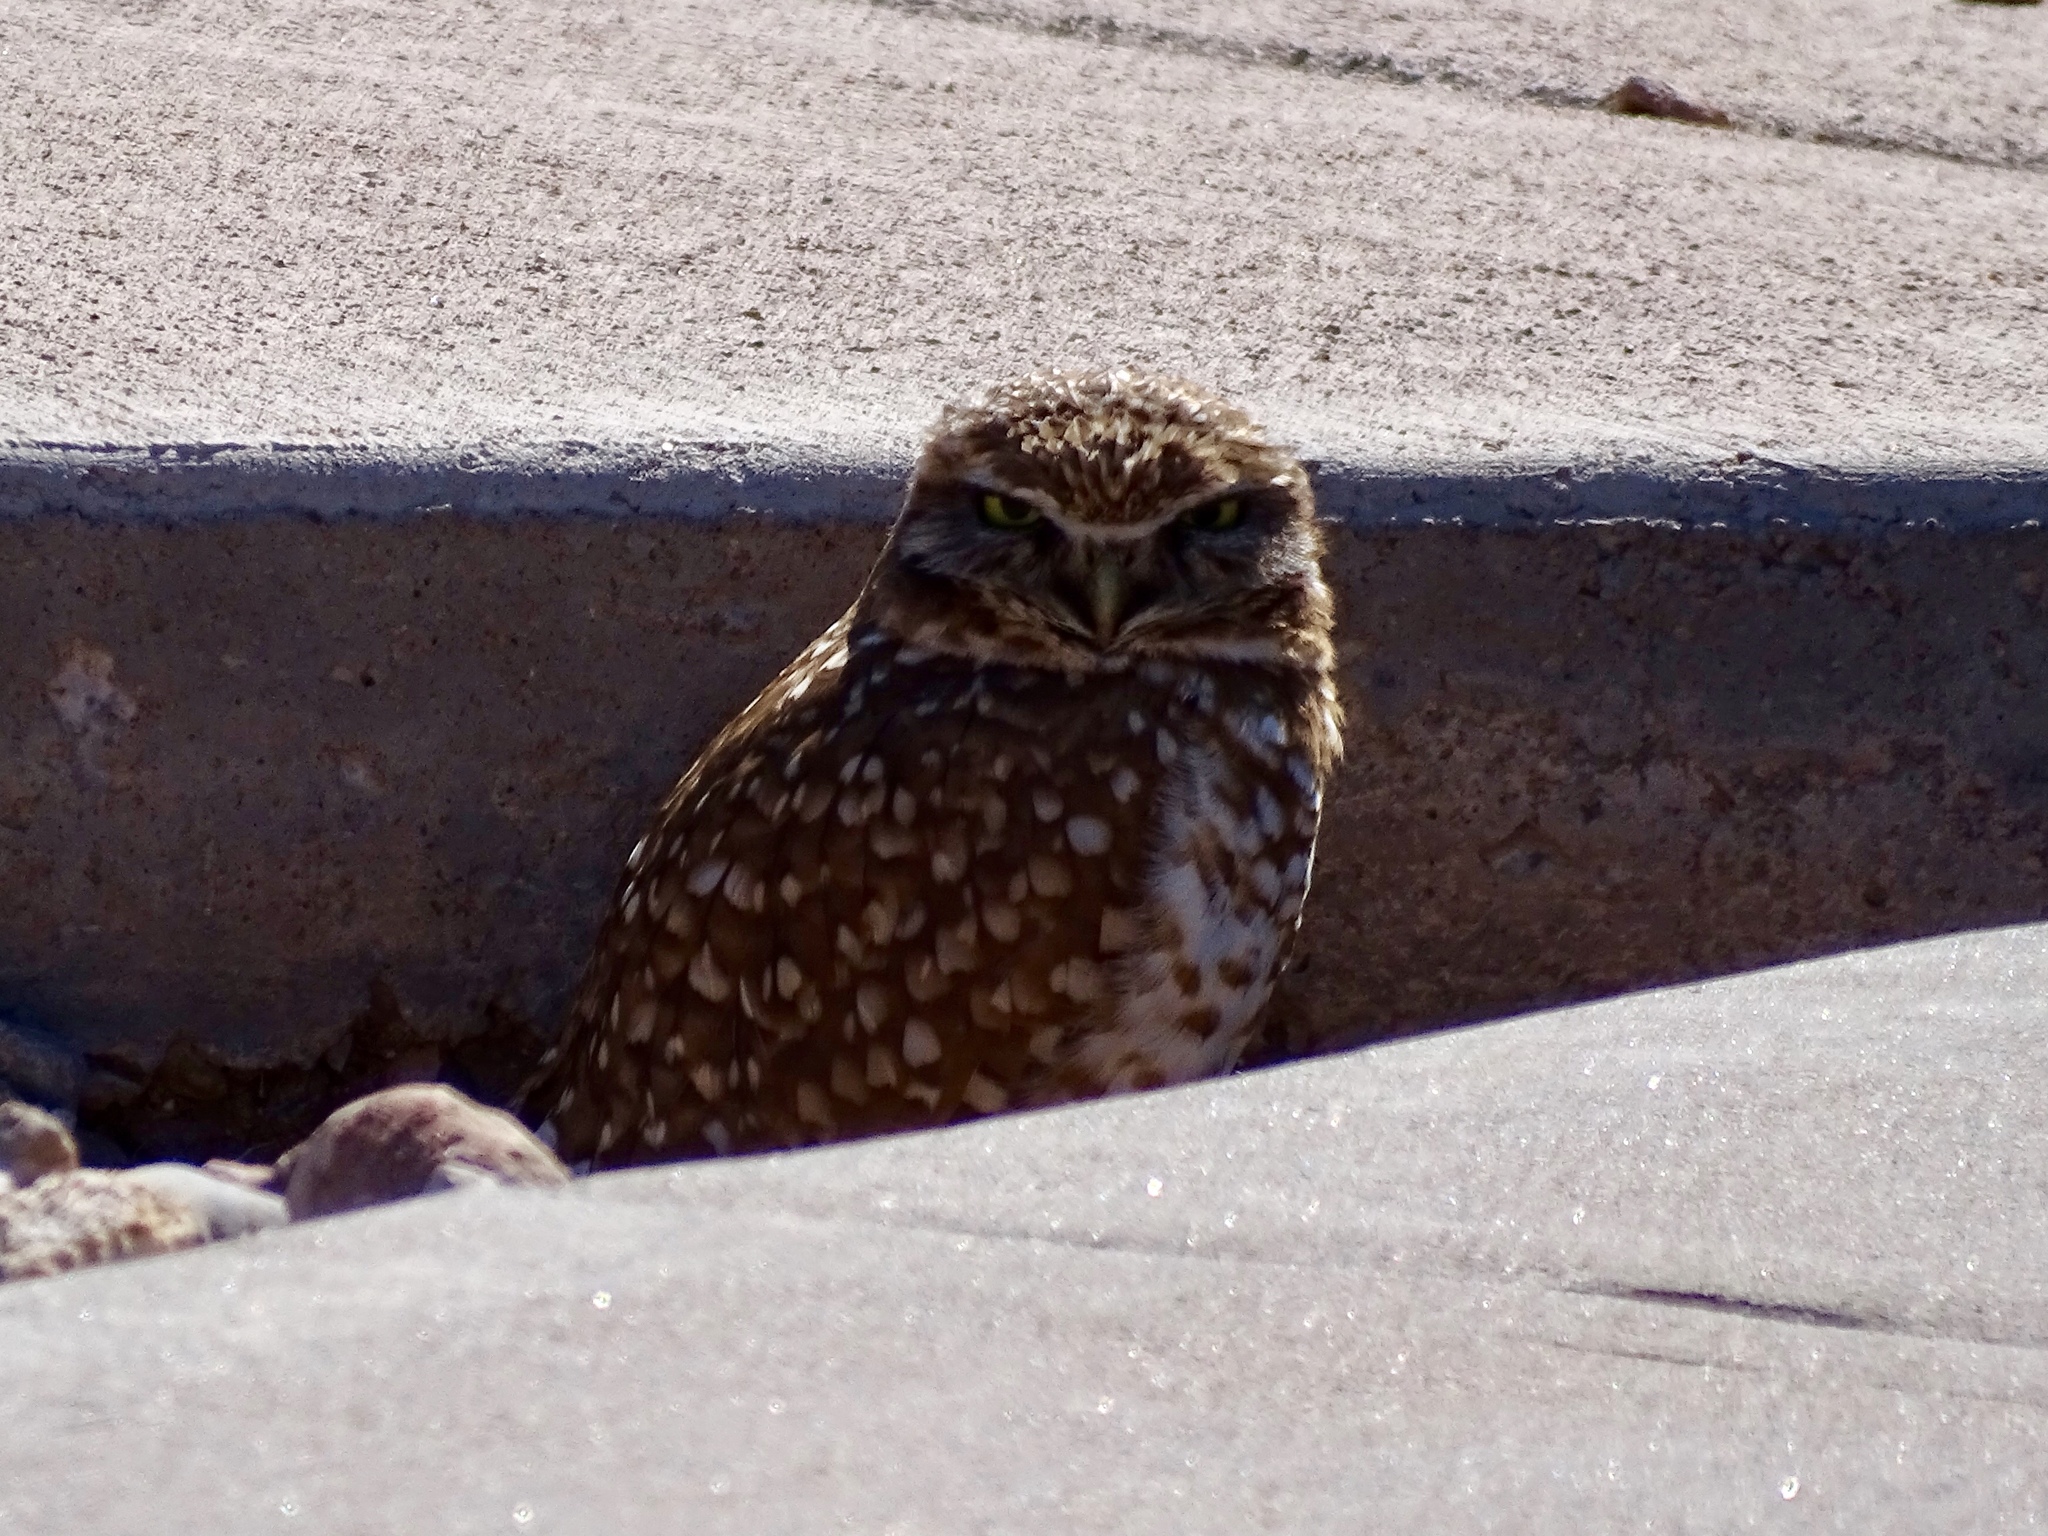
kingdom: Animalia
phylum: Chordata
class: Aves
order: Strigiformes
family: Strigidae
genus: Athene
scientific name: Athene cunicularia
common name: Burrowing owl
